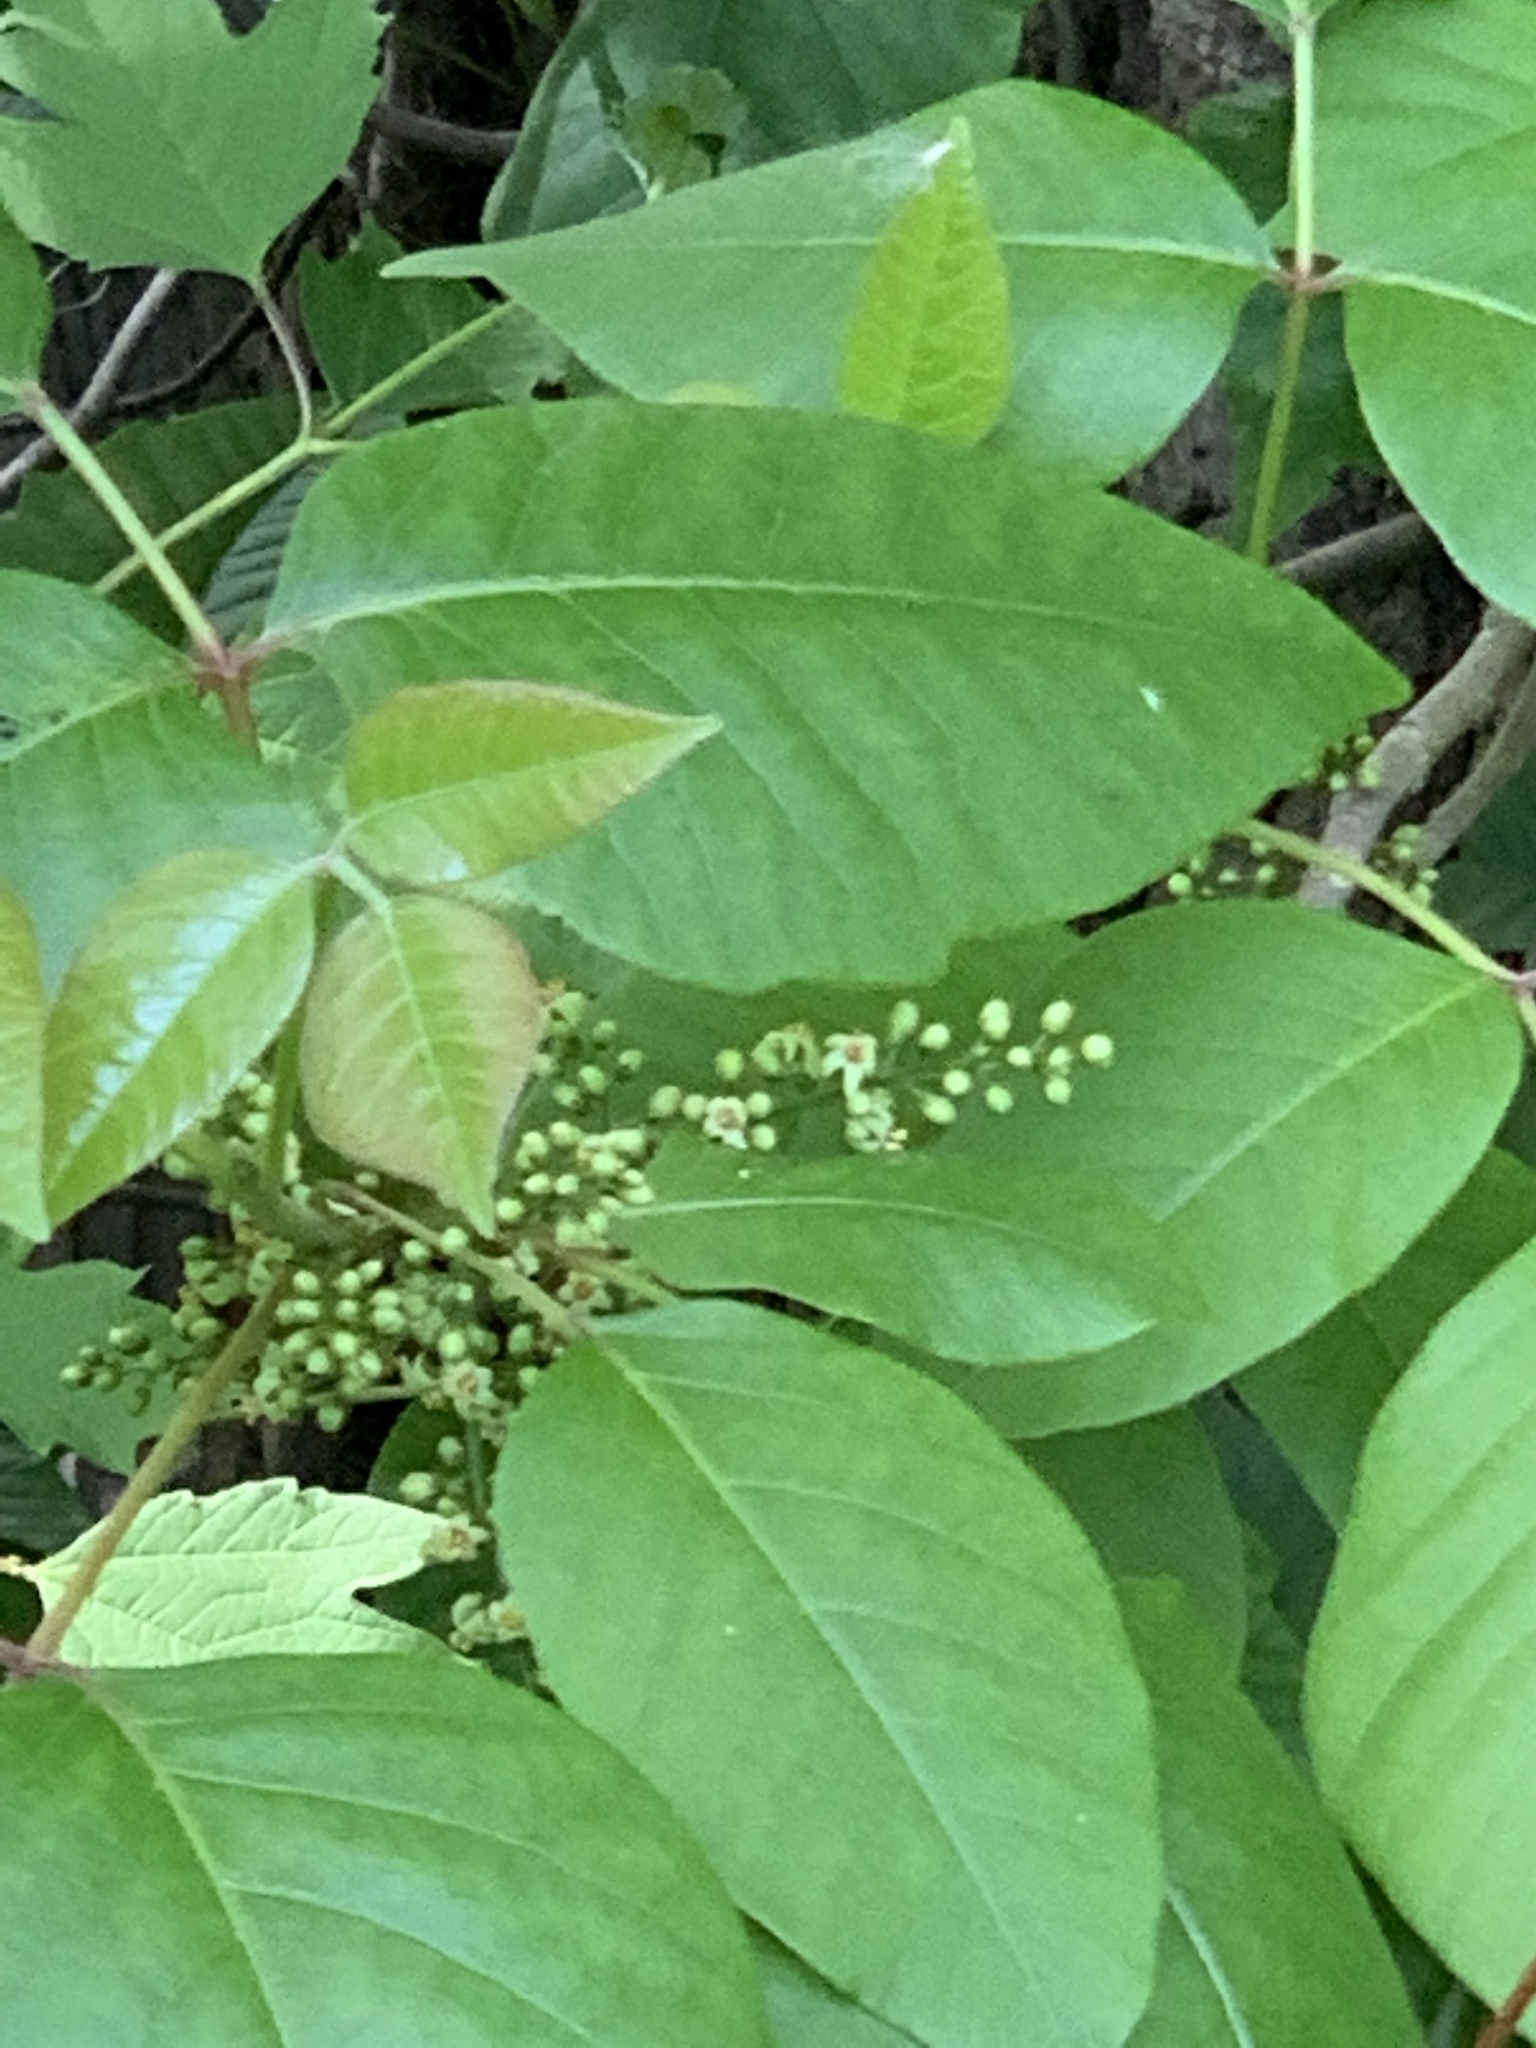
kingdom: Plantae
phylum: Tracheophyta
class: Magnoliopsida
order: Sapindales
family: Anacardiaceae
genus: Toxicodendron
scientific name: Toxicodendron radicans
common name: Poison ivy
